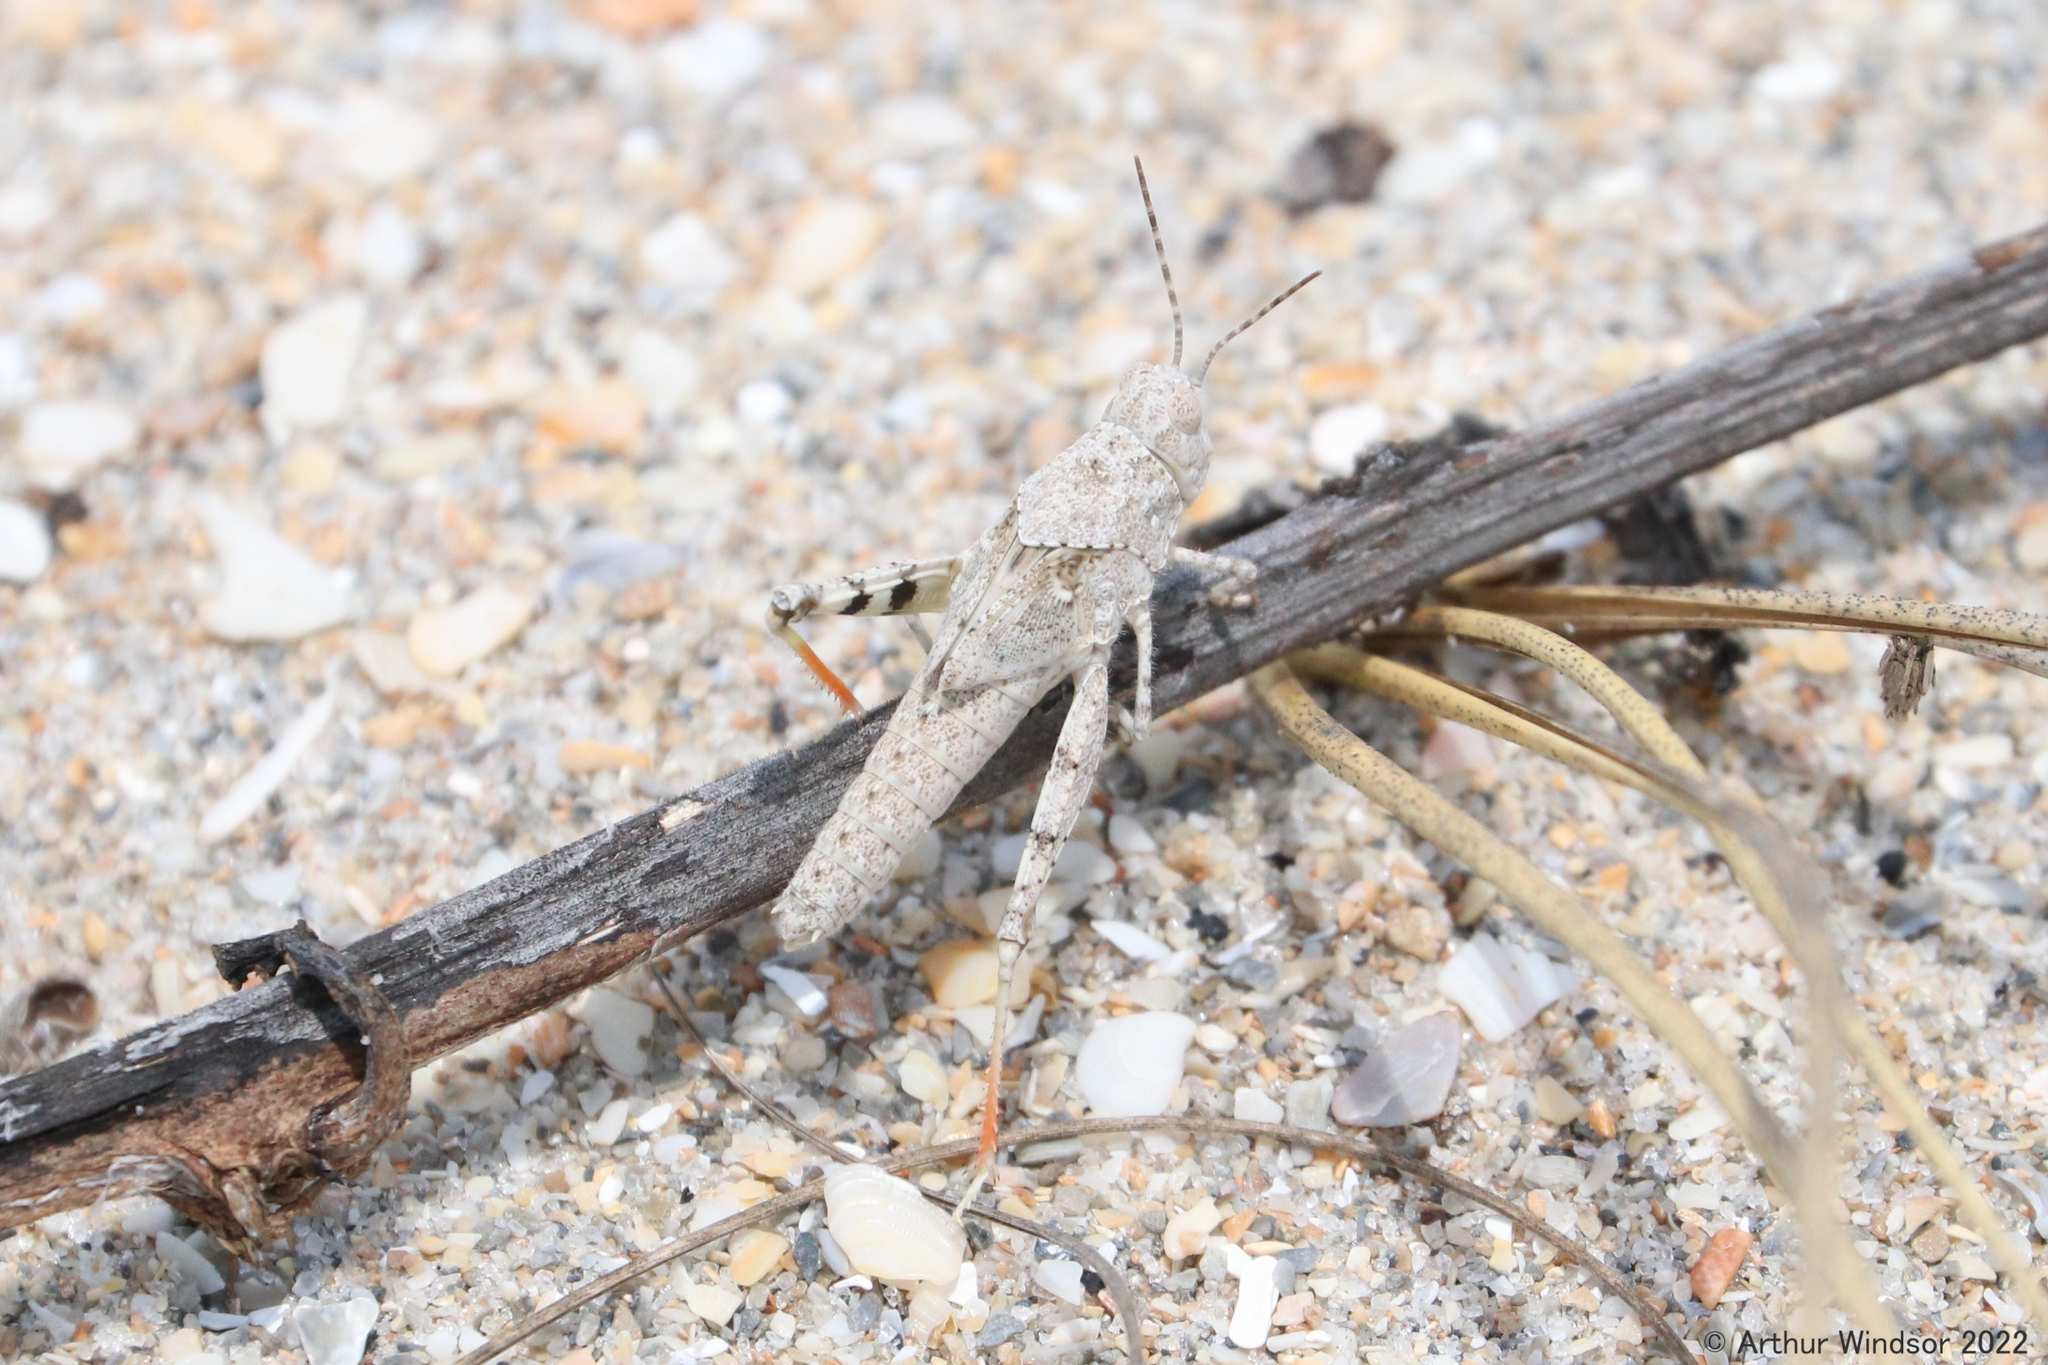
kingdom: Animalia
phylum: Arthropoda
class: Insecta
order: Orthoptera
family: Acrididae
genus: Trimerotropis
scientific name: Trimerotropis maritima
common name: Seaside locust
